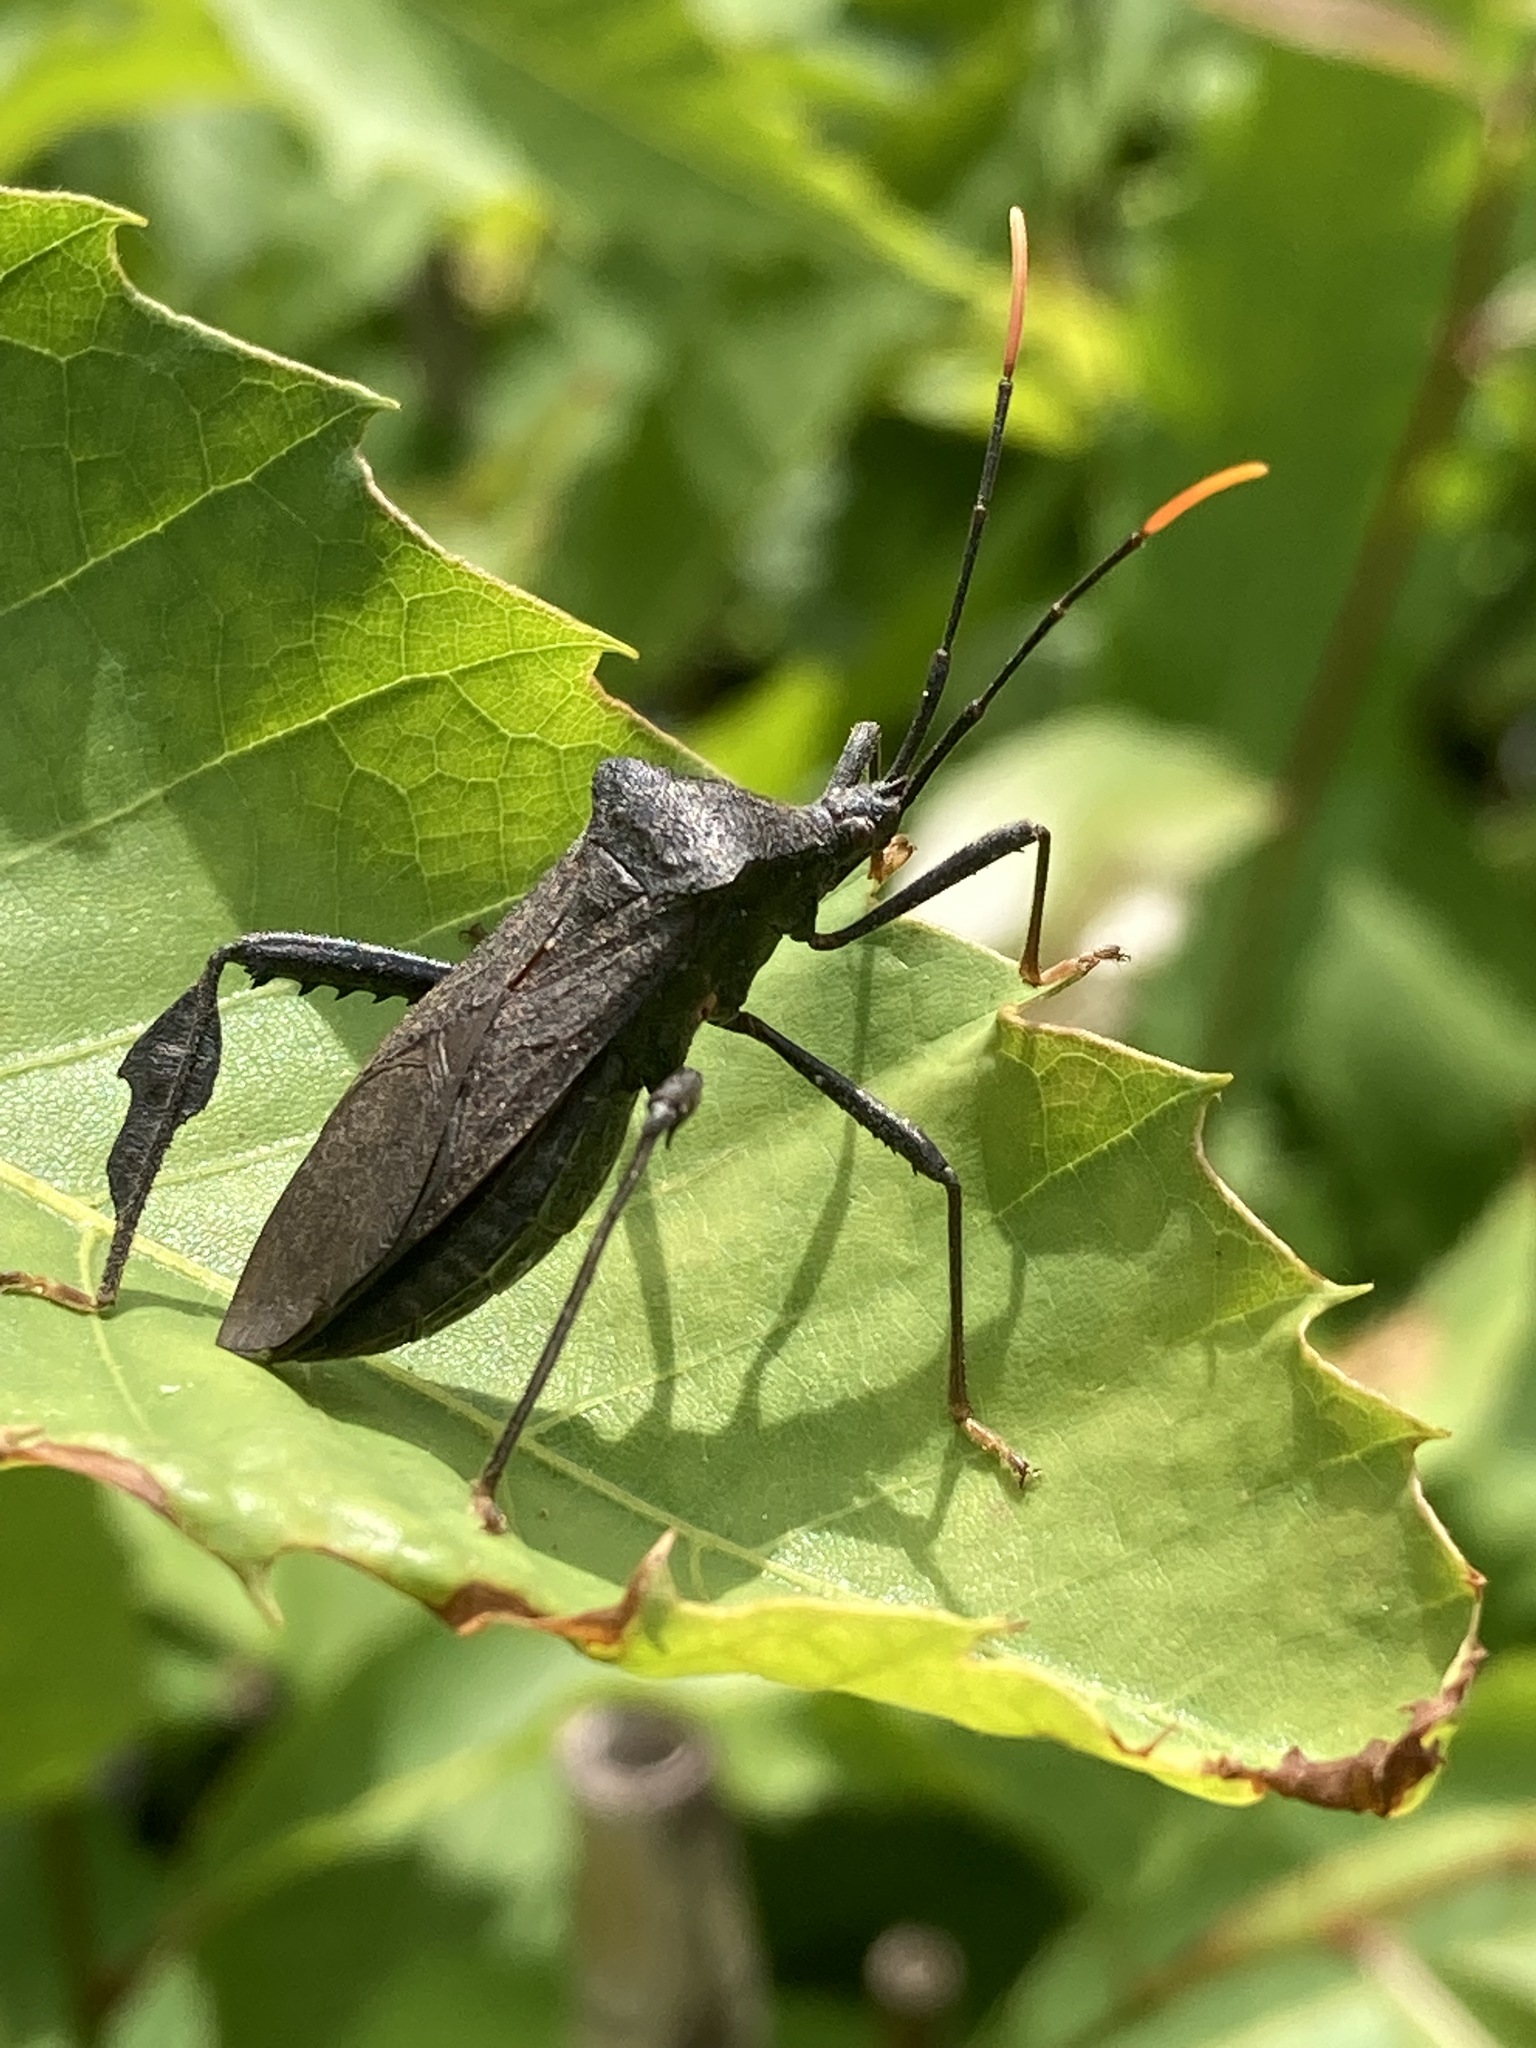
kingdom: Animalia
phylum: Arthropoda
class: Insecta
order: Hemiptera
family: Coreidae
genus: Acanthocephala
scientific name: Acanthocephala terminalis
